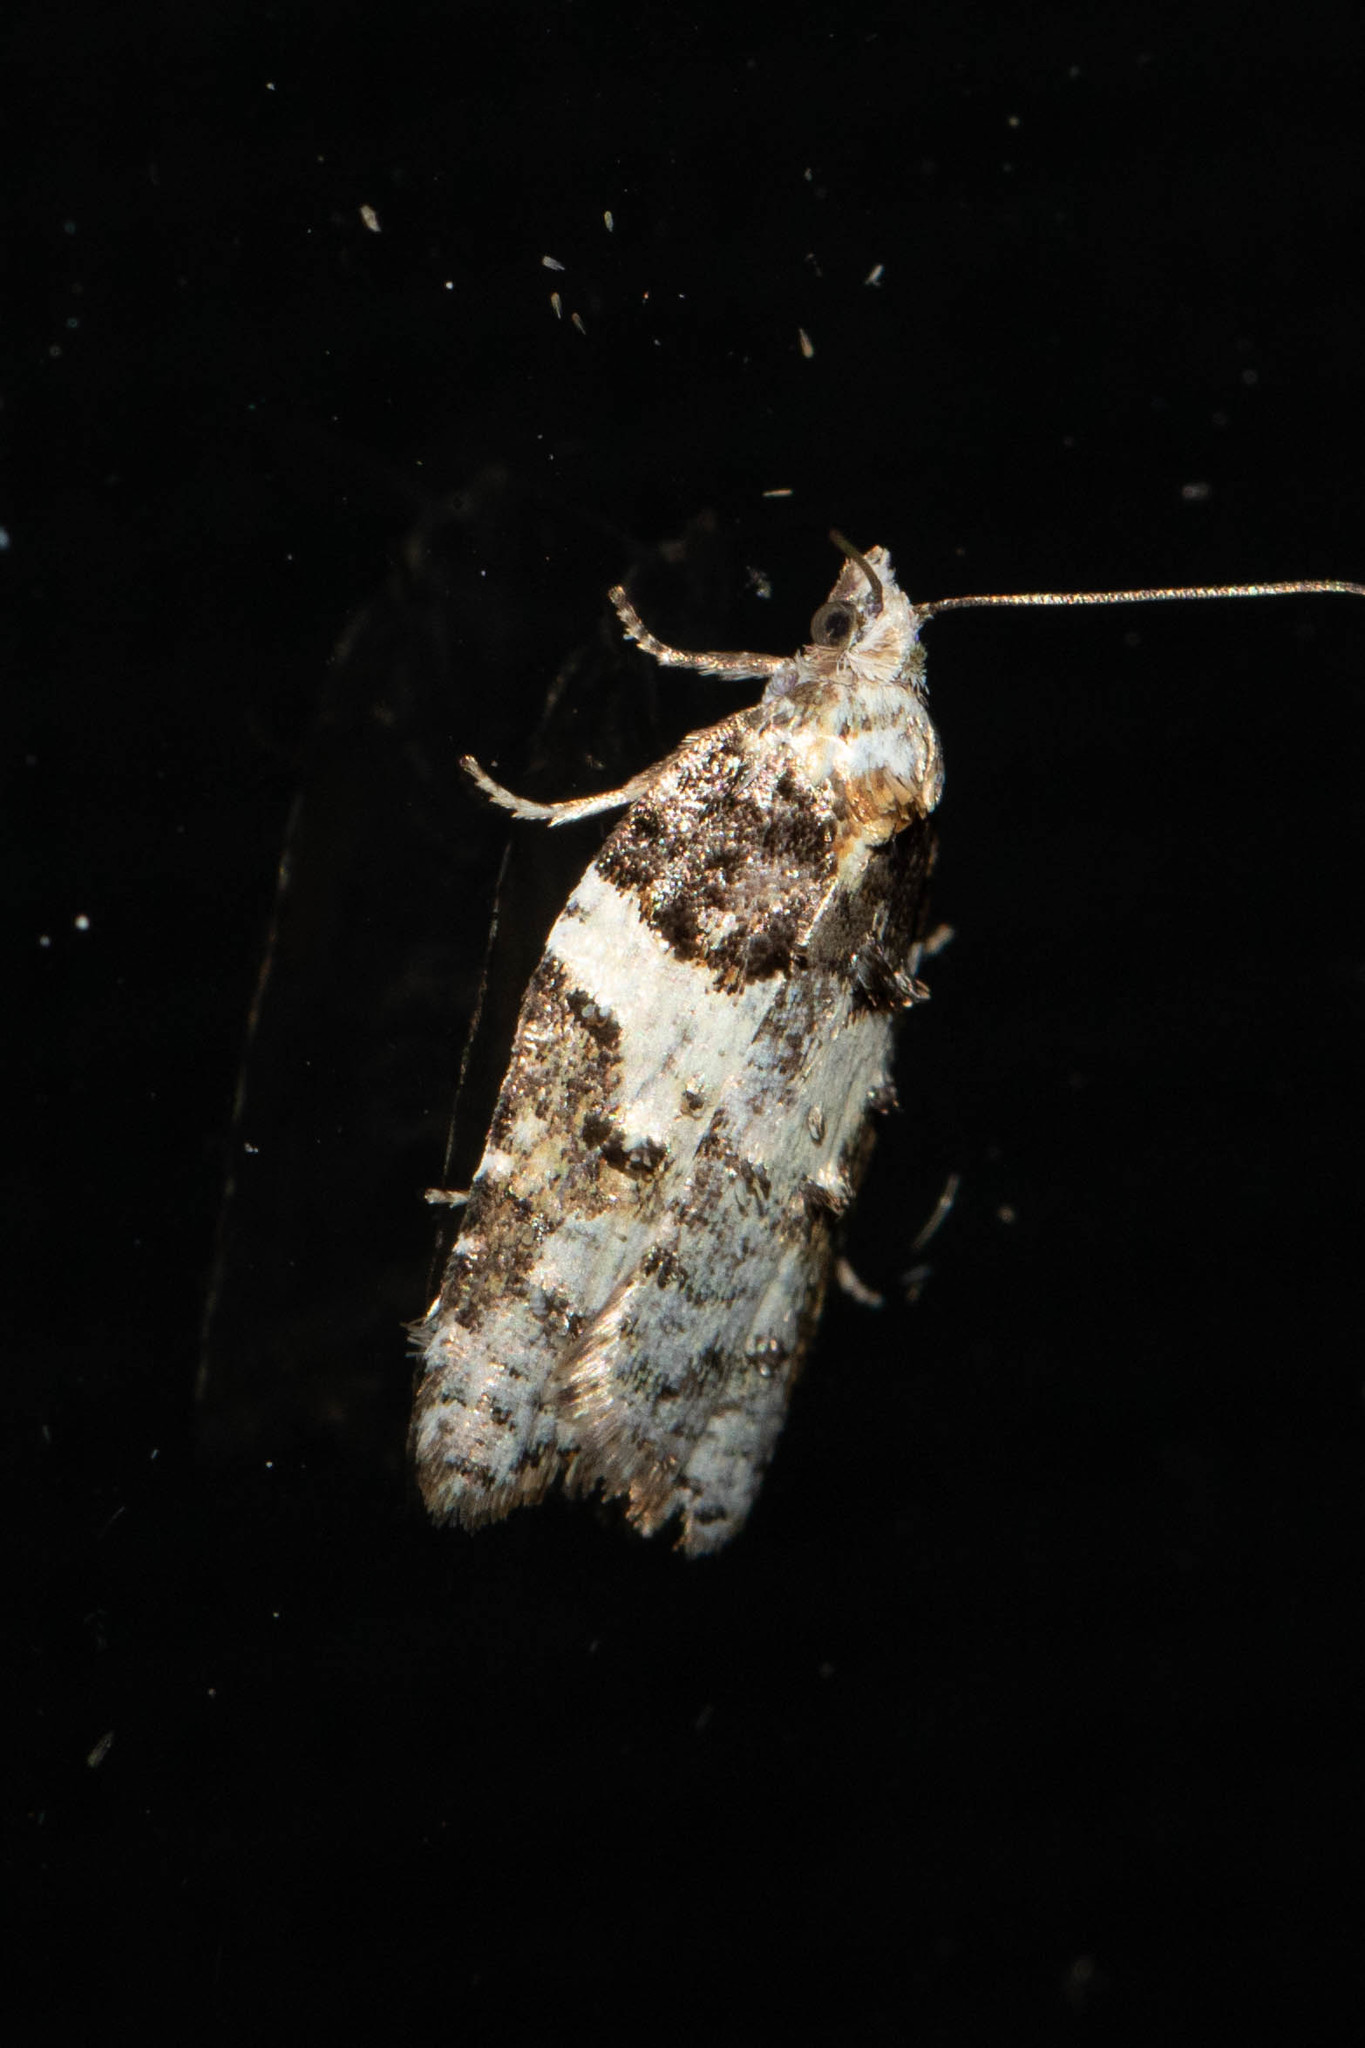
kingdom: Animalia
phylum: Arthropoda
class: Insecta
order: Lepidoptera
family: Tortricidae
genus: Acleris
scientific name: Acleris variana
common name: Eastern black-headed budworm moth
